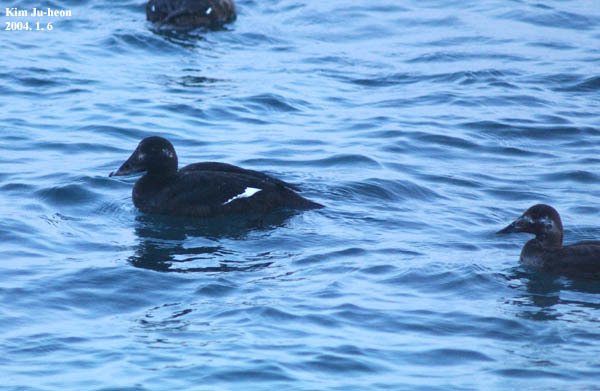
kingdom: Animalia
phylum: Chordata
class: Aves
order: Anseriformes
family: Anatidae
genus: Melanitta
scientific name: Melanitta stejnegeri
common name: Stejneger's scoter
